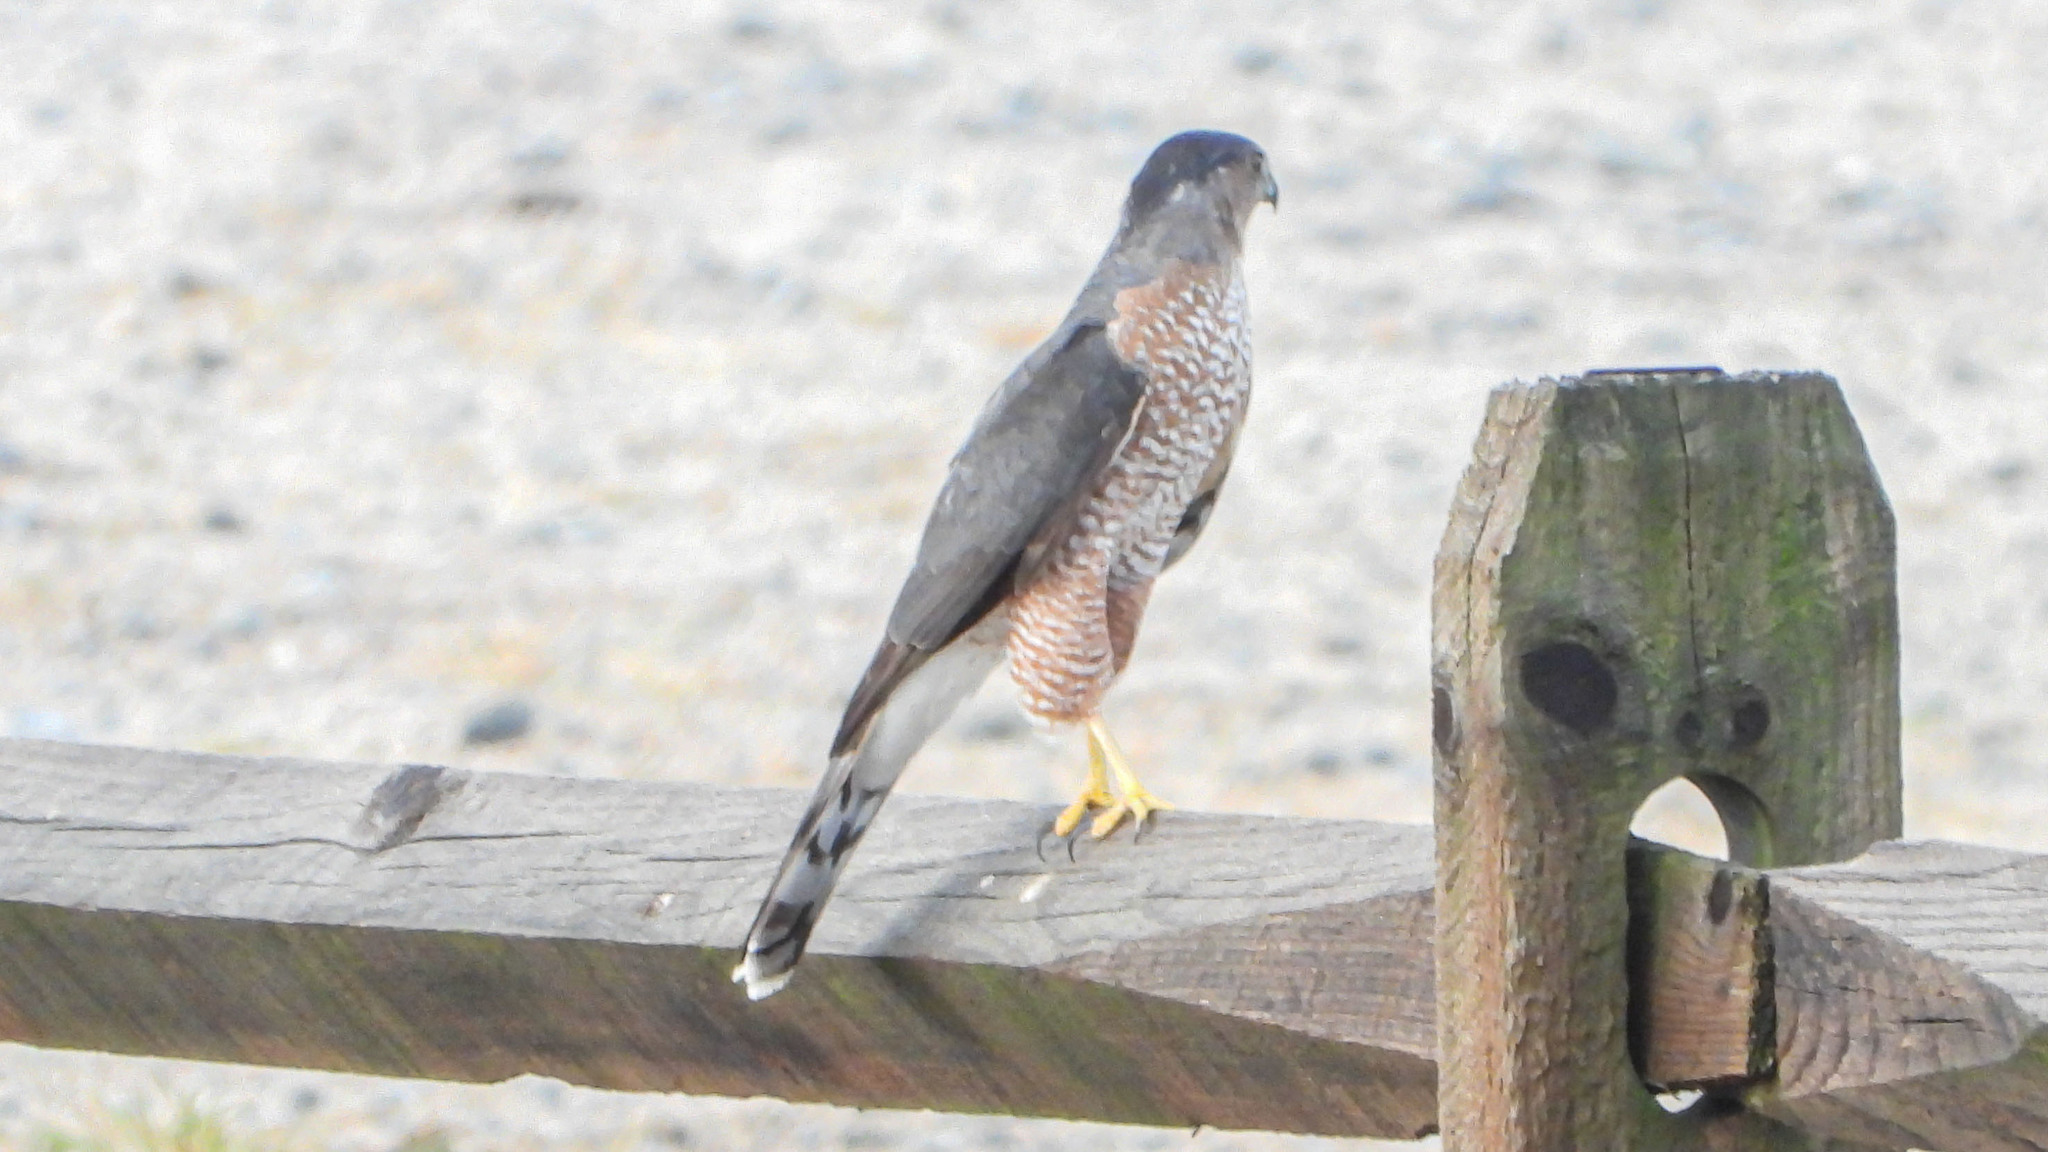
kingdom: Animalia
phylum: Chordata
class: Aves
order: Accipitriformes
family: Accipitridae
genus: Accipiter
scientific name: Accipiter cooperii
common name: Cooper's hawk
